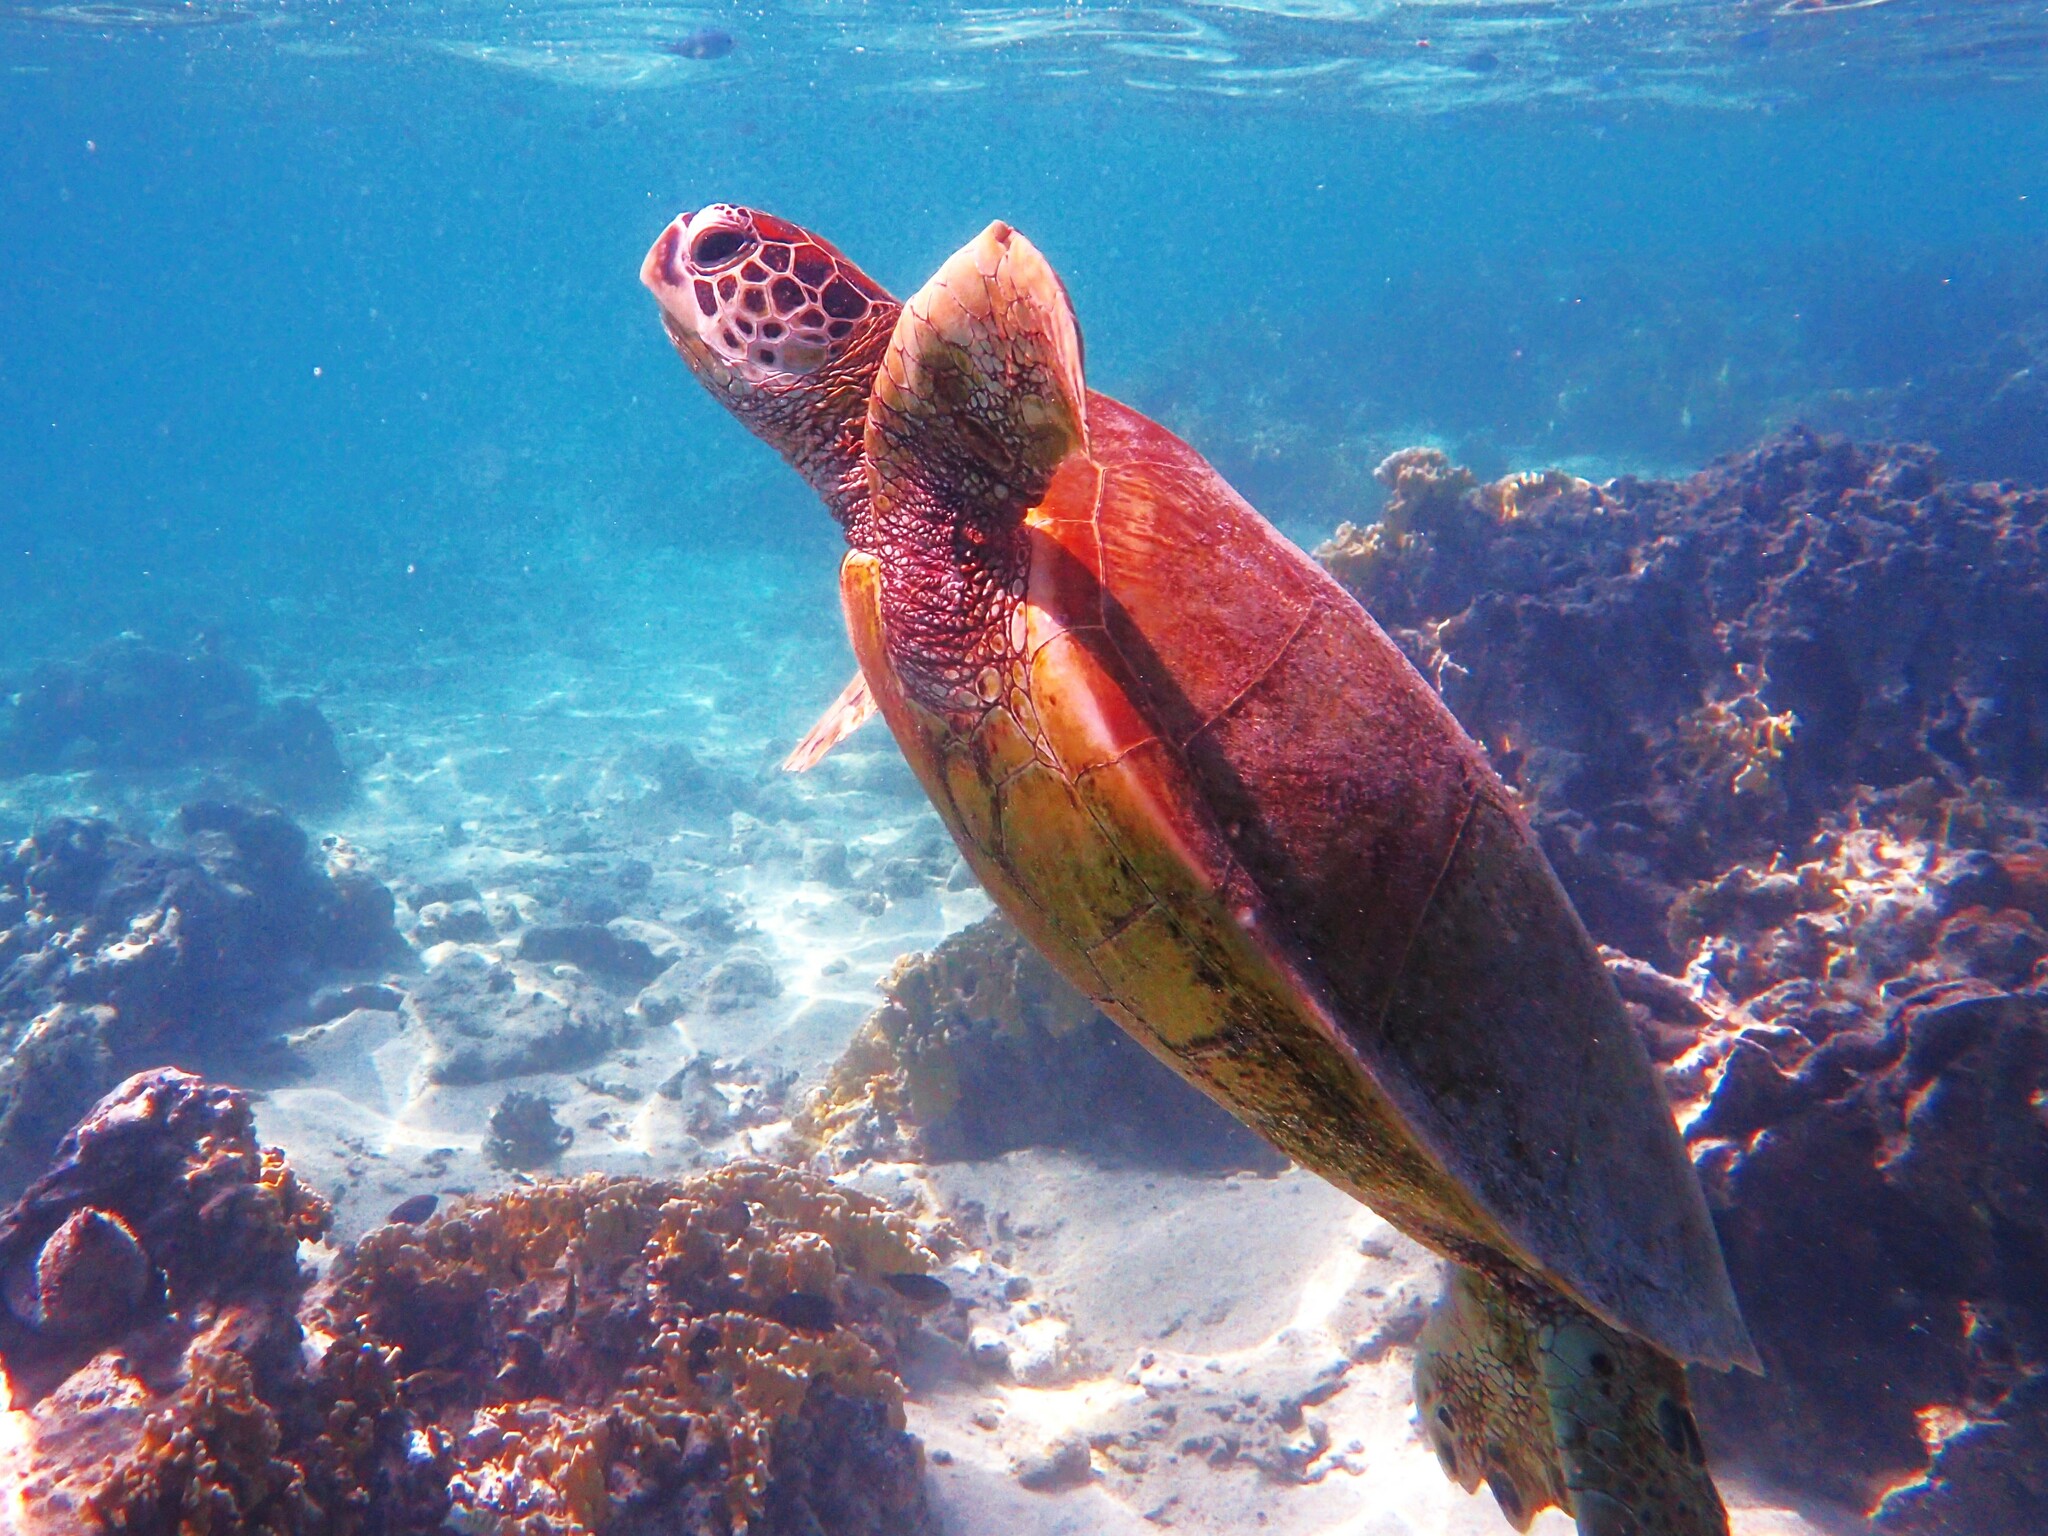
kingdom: Animalia
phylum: Chordata
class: Testudines
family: Cheloniidae
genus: Chelonia
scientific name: Chelonia mydas
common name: Green turtle
